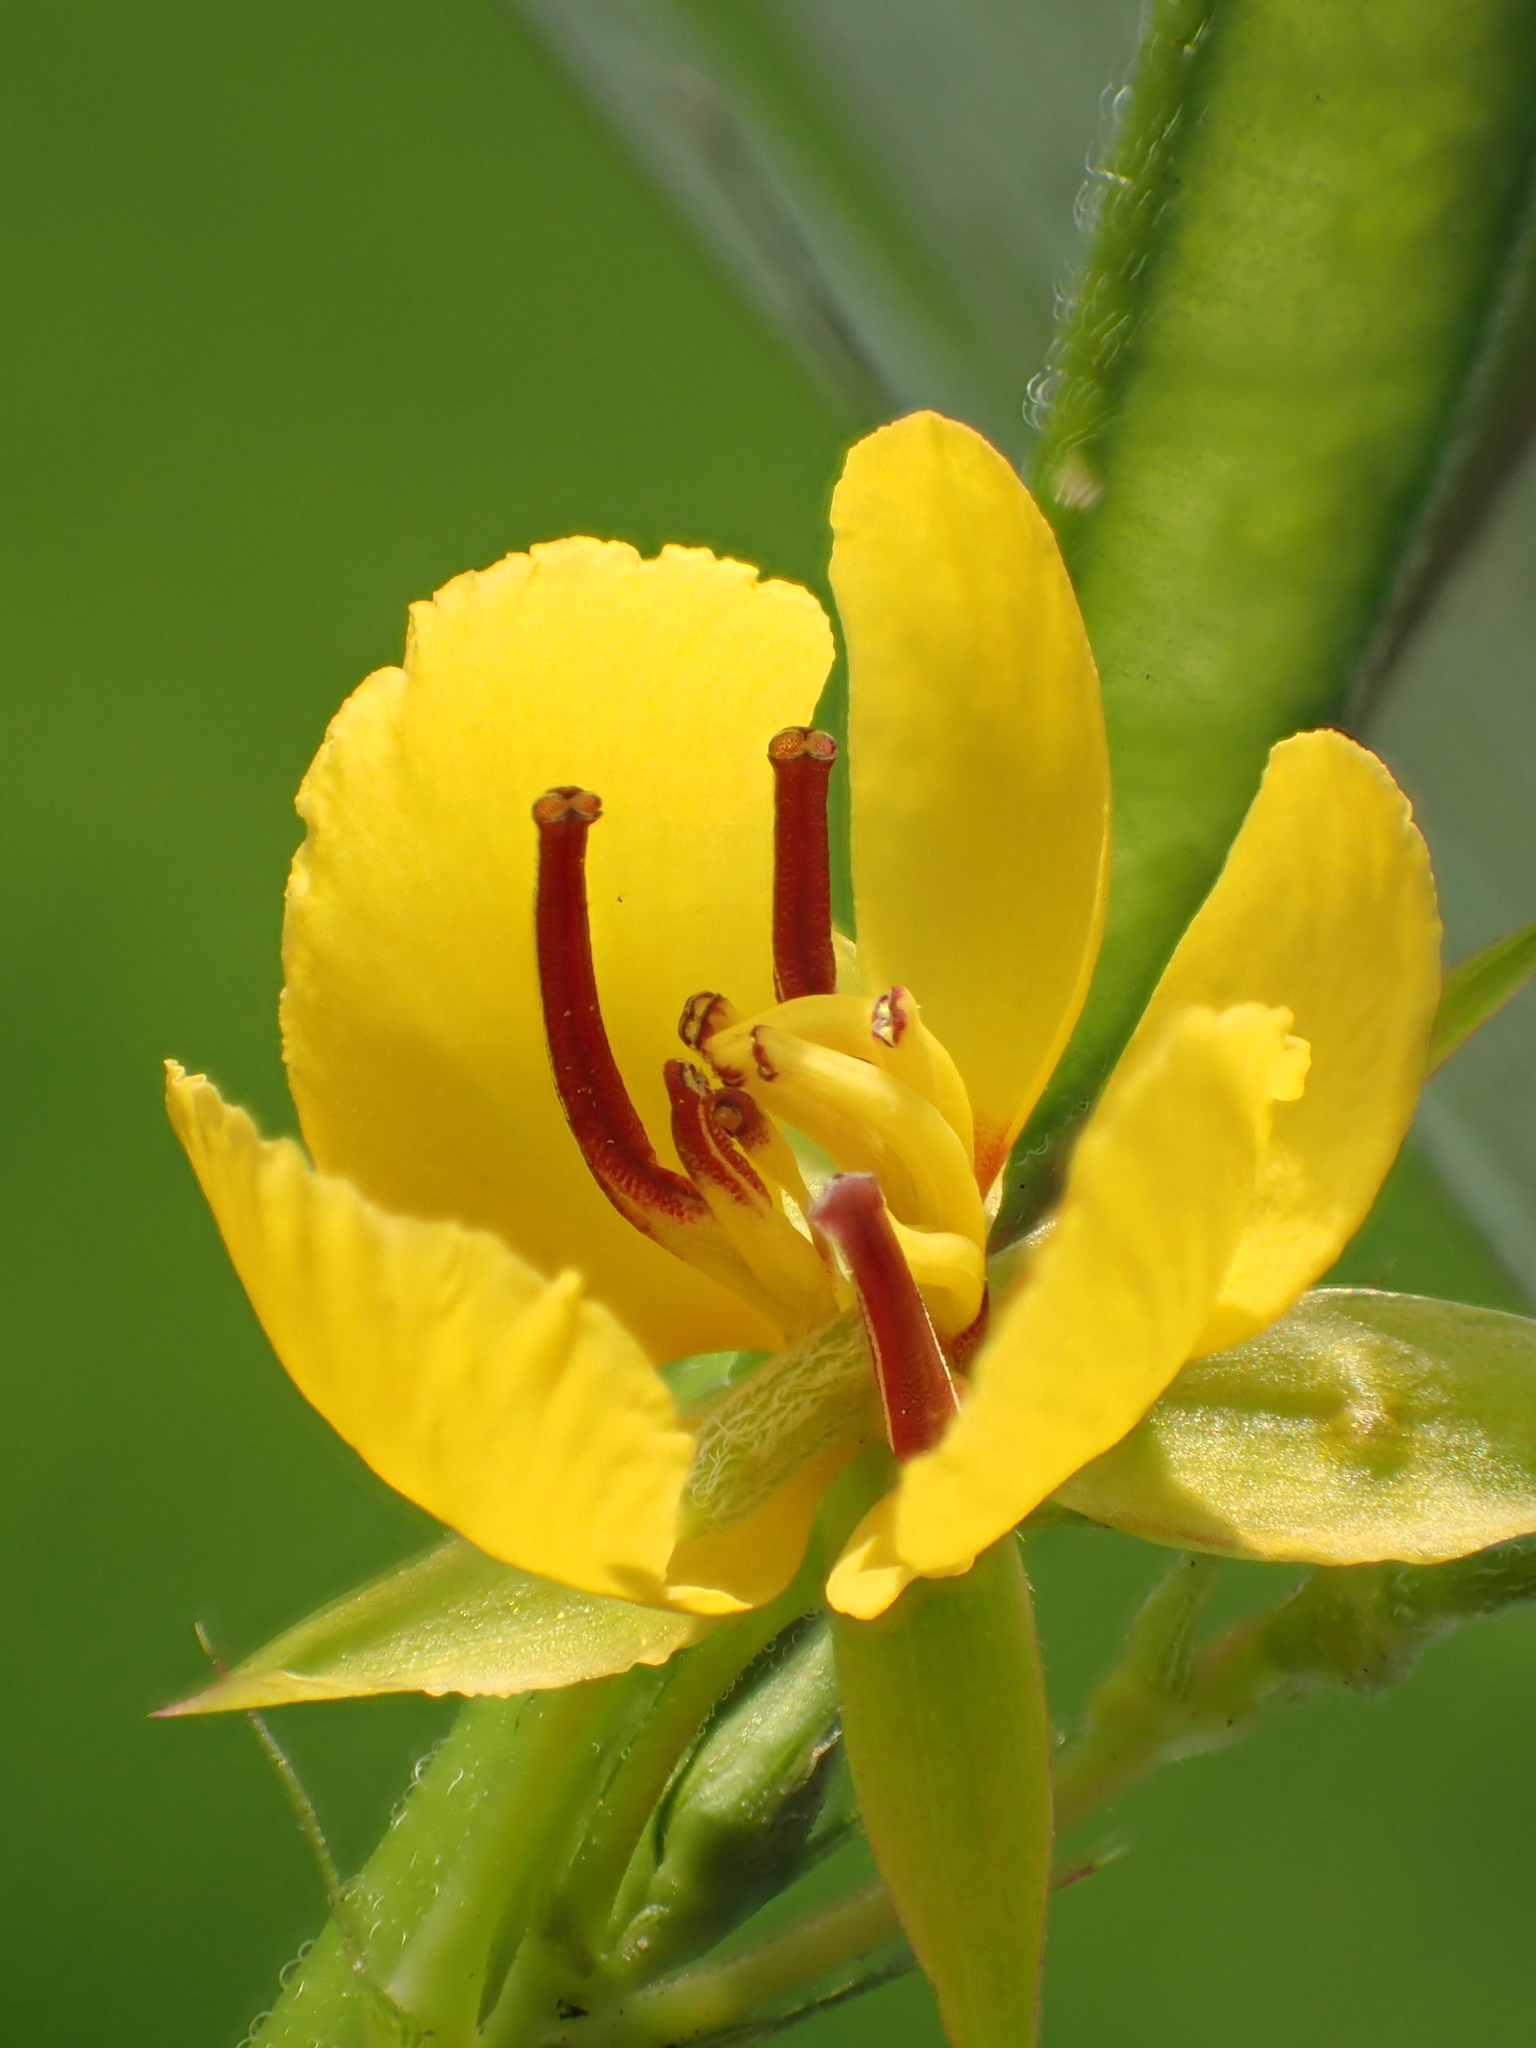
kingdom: Plantae
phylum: Tracheophyta
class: Magnoliopsida
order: Fabales
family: Fabaceae
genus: Chamaecrista
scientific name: Chamaecrista leschenaultiana
